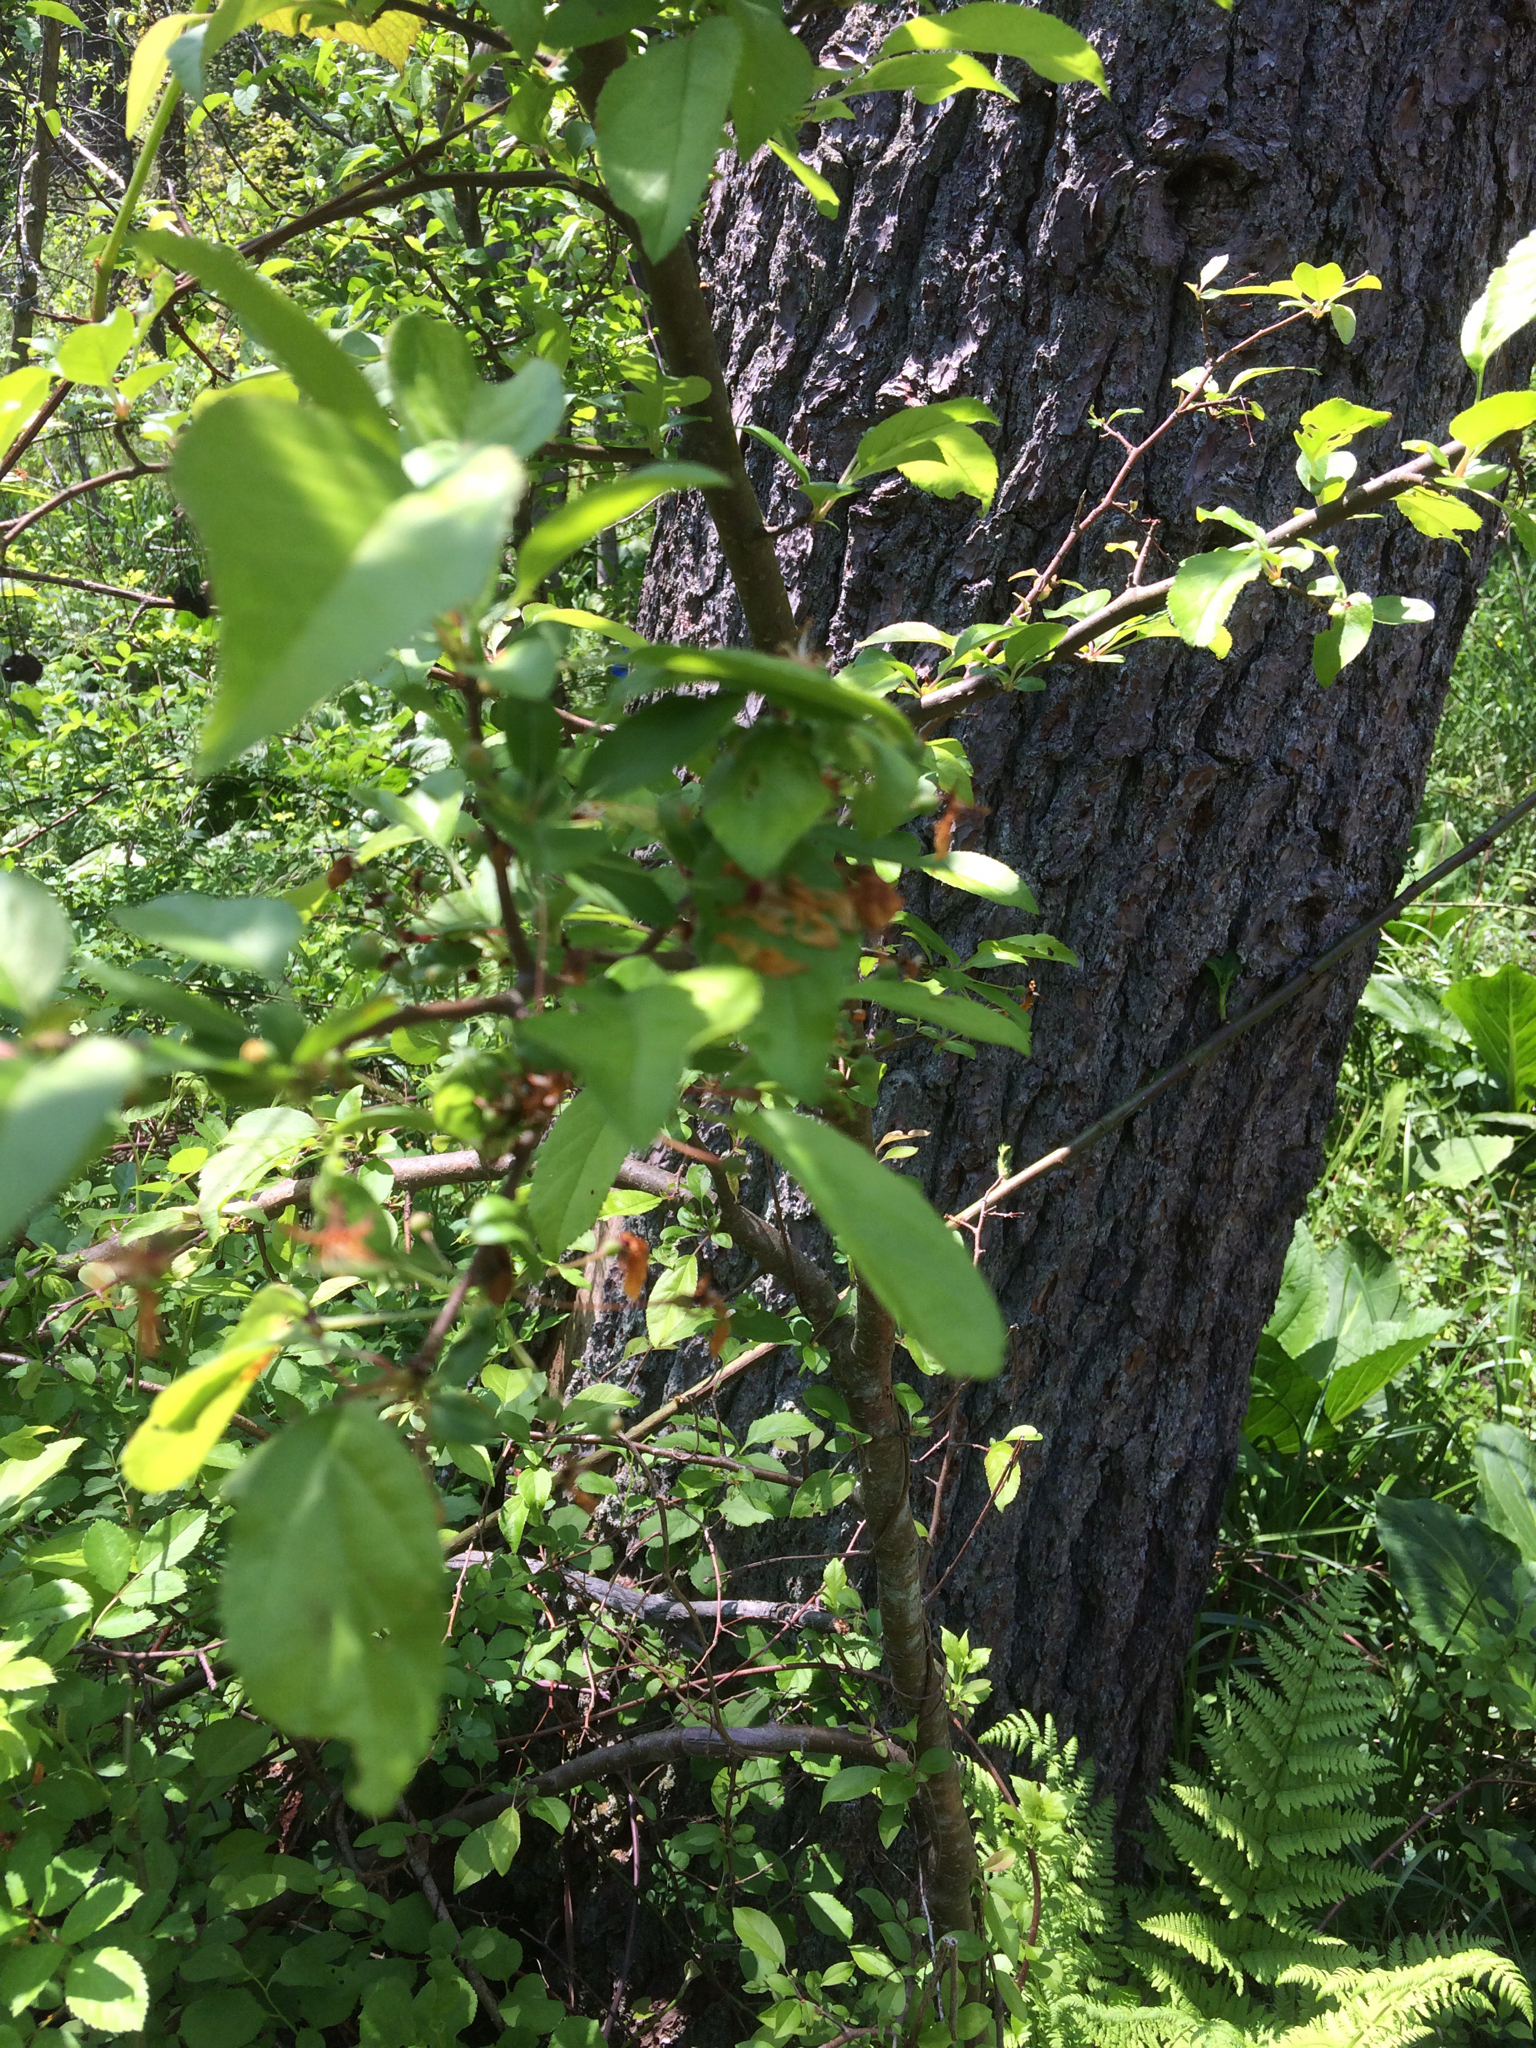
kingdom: Plantae
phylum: Tracheophyta
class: Magnoliopsida
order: Aquifoliales
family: Aquifoliaceae
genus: Ilex
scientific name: Ilex verticillata
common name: Virginia winterberry
